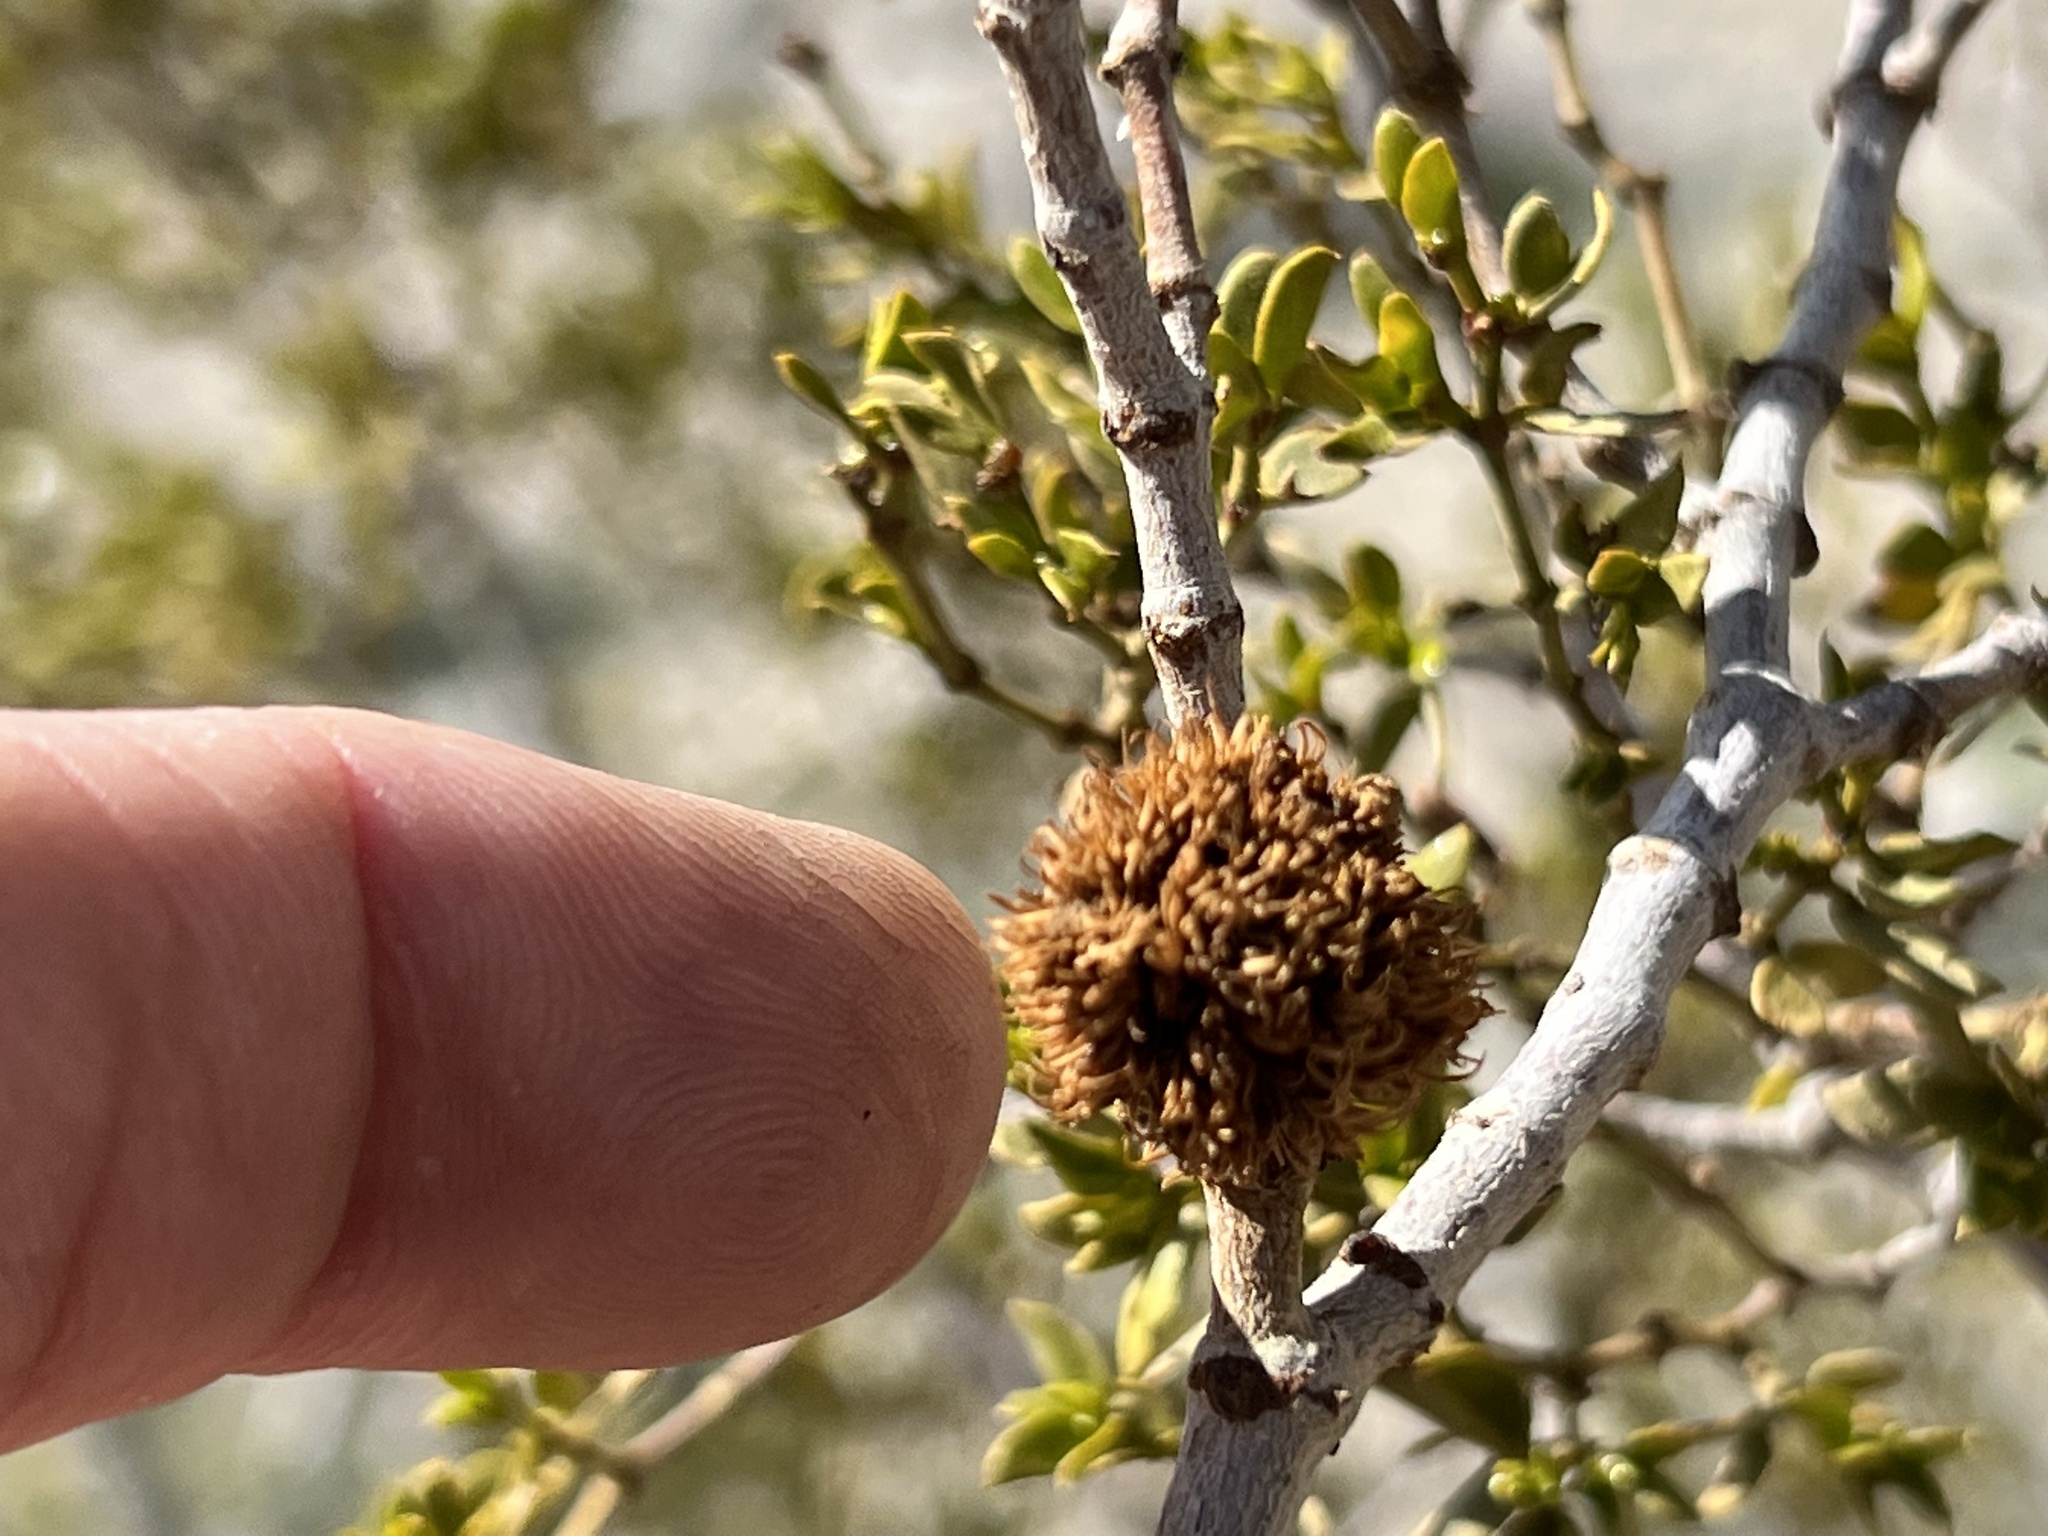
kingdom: Animalia
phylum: Arthropoda
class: Insecta
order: Diptera
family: Cecidomyiidae
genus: Asphondylia
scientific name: Asphondylia auripila
